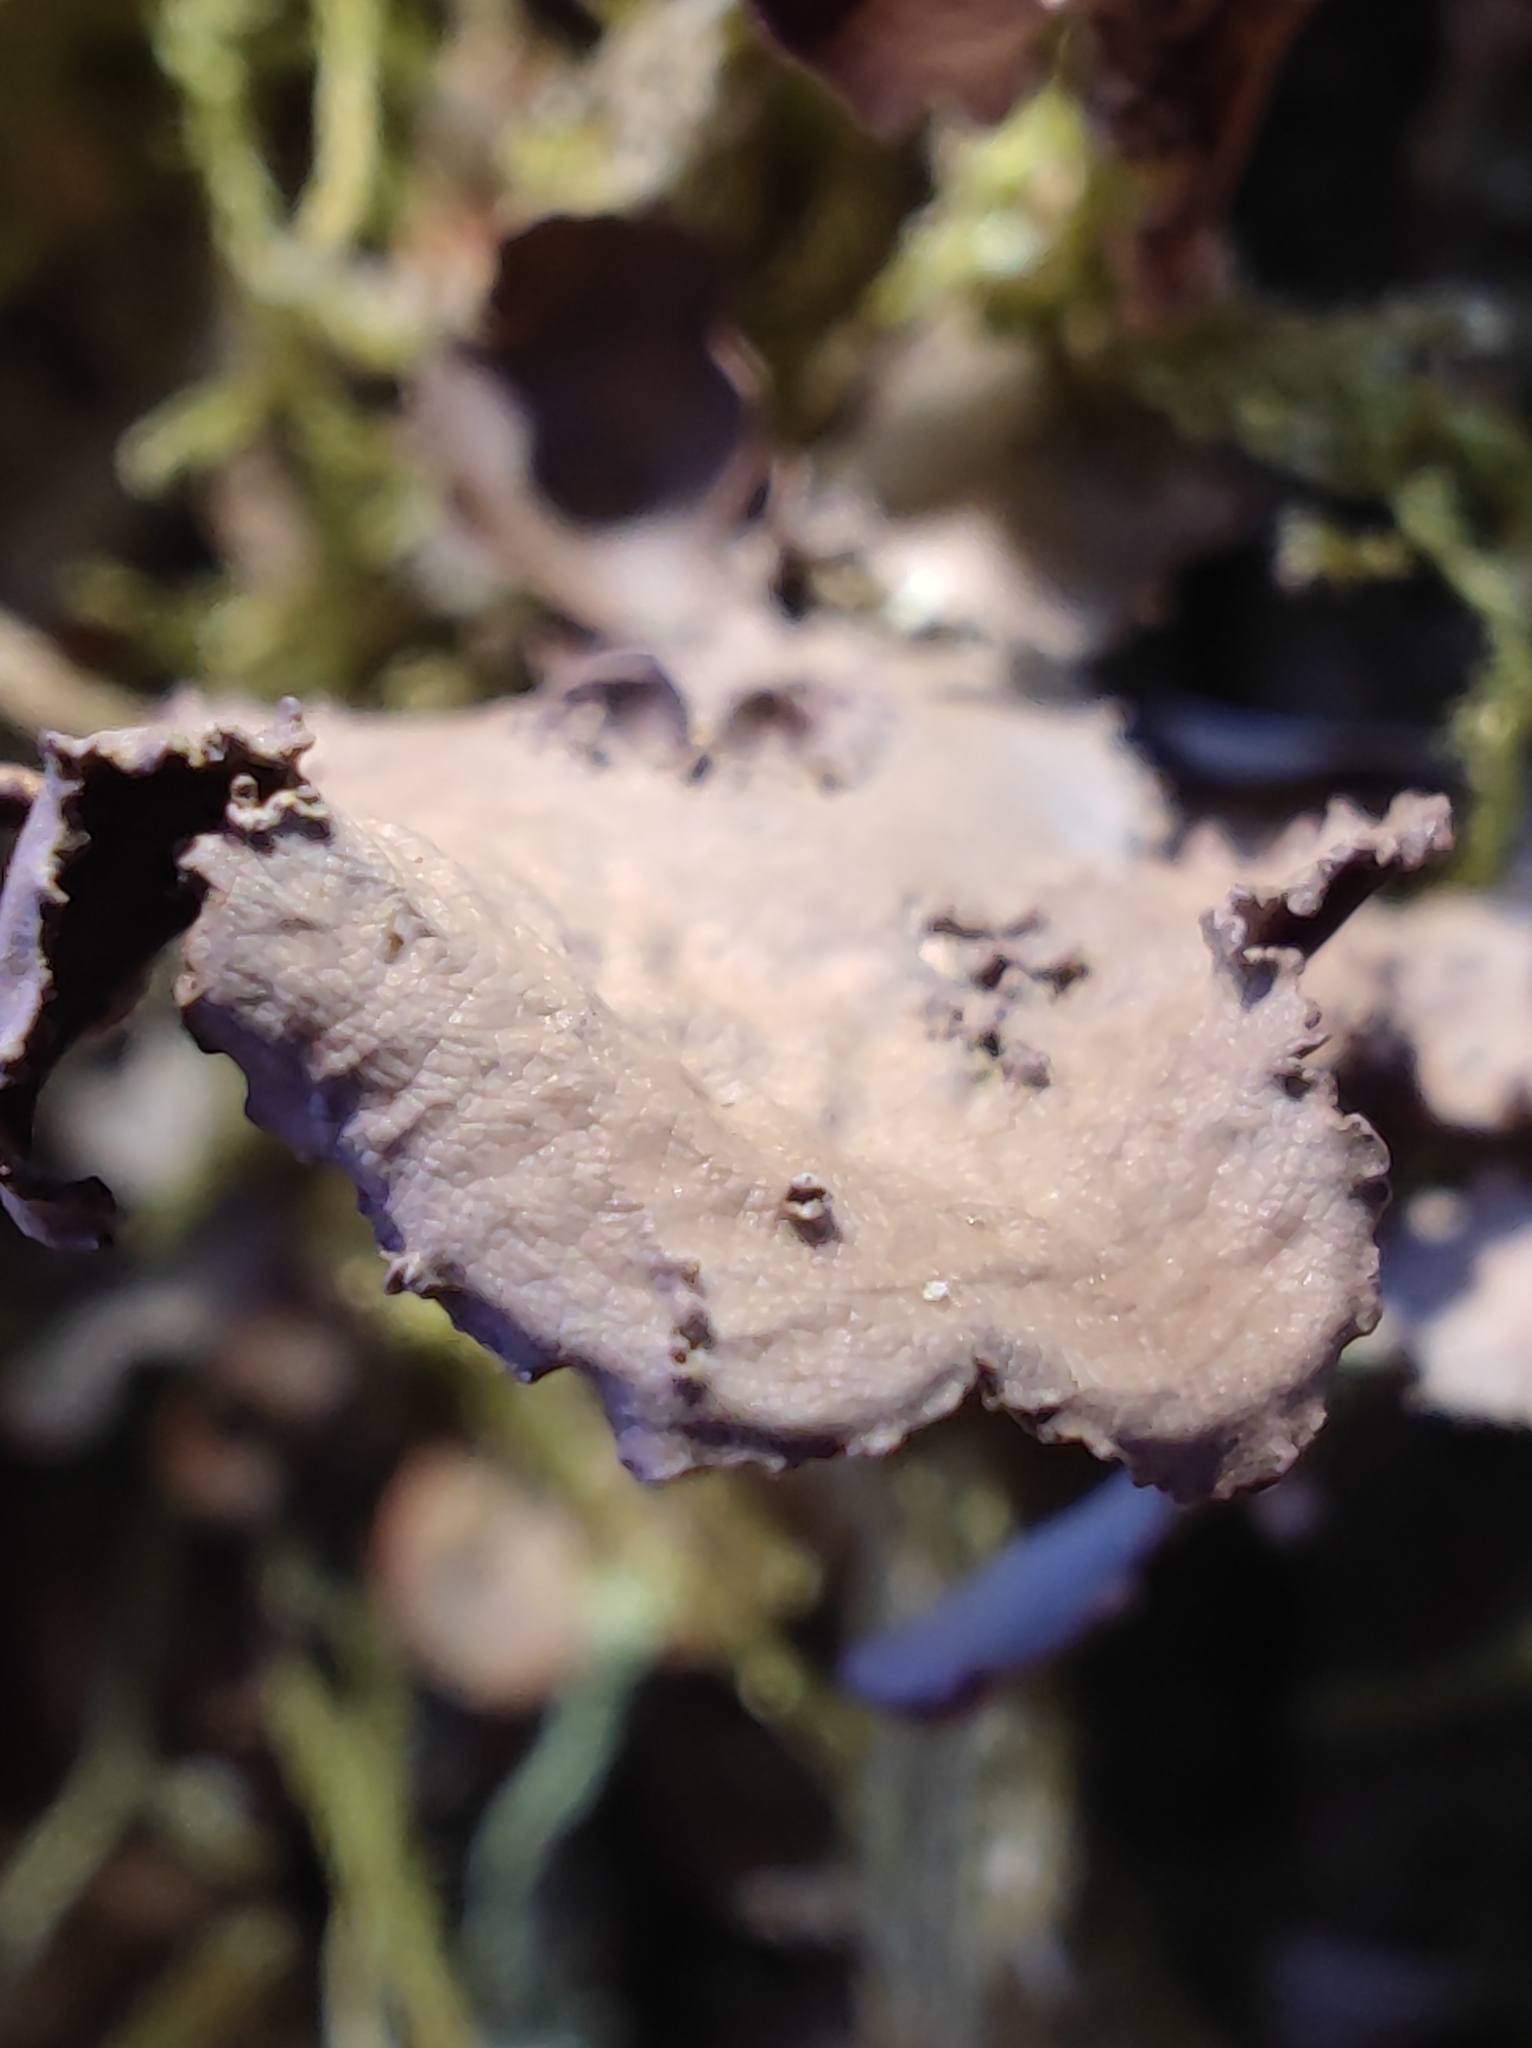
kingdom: Fungi
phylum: Ascomycota
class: Lecanoromycetes
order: Peltigerales
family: Nephromataceae
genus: Nephroma
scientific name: Nephroma laevigatum
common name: Mustard kidney lichen
